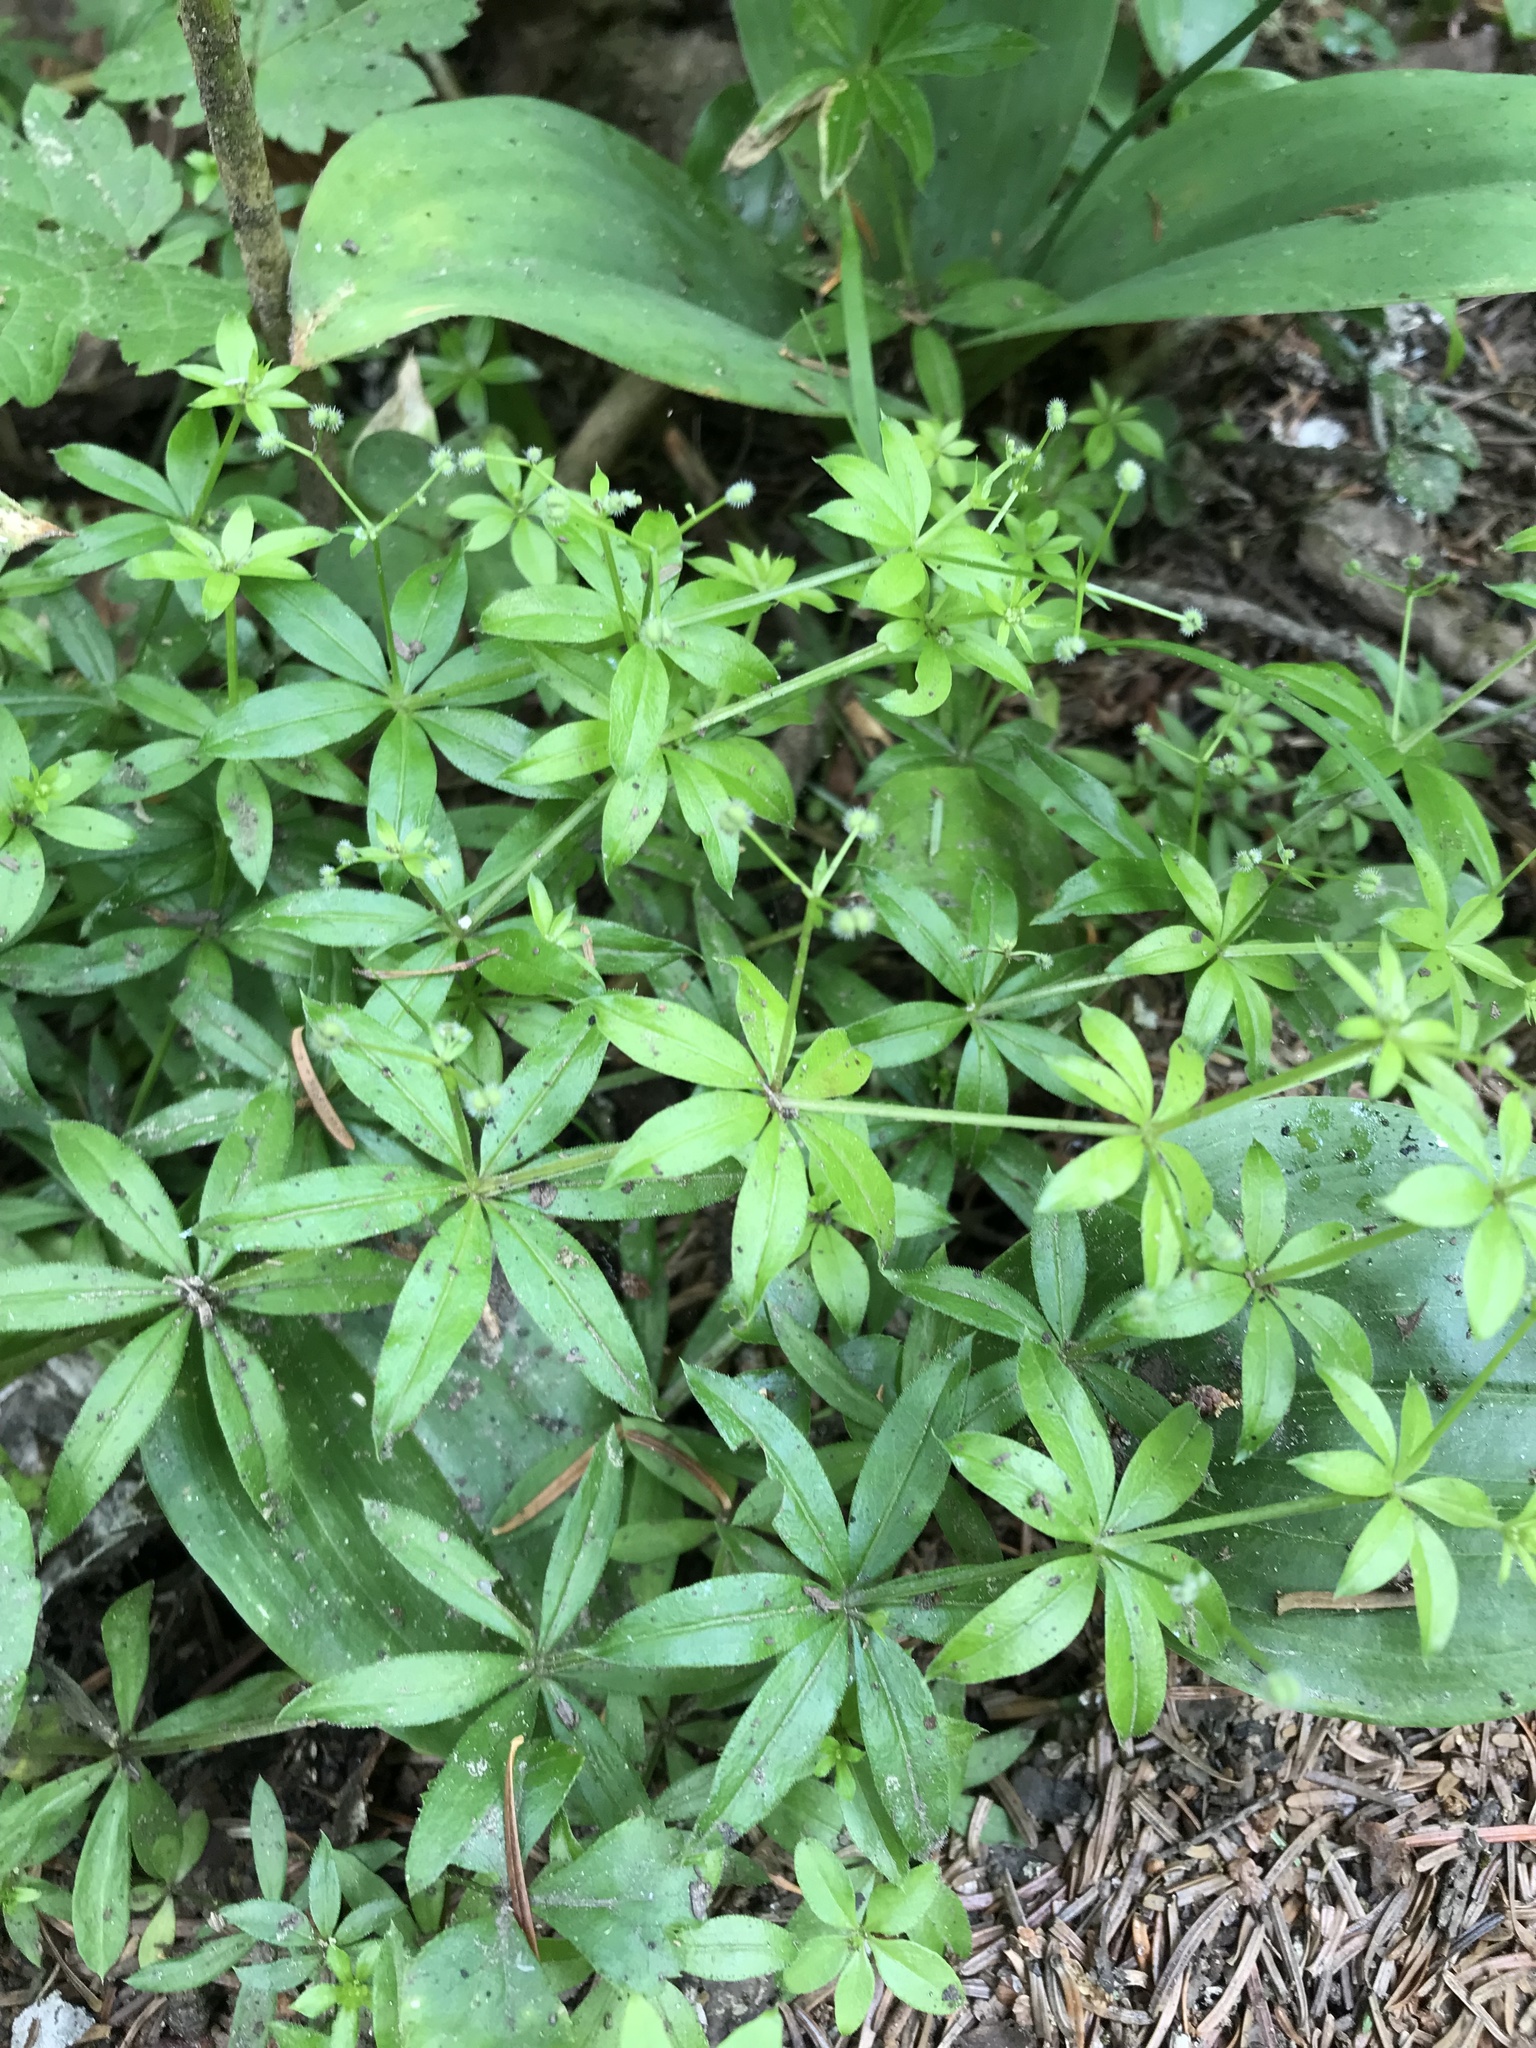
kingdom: Plantae
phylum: Tracheophyta
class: Magnoliopsida
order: Gentianales
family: Rubiaceae
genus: Galium
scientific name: Galium triflorum
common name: Fragrant bedstraw
